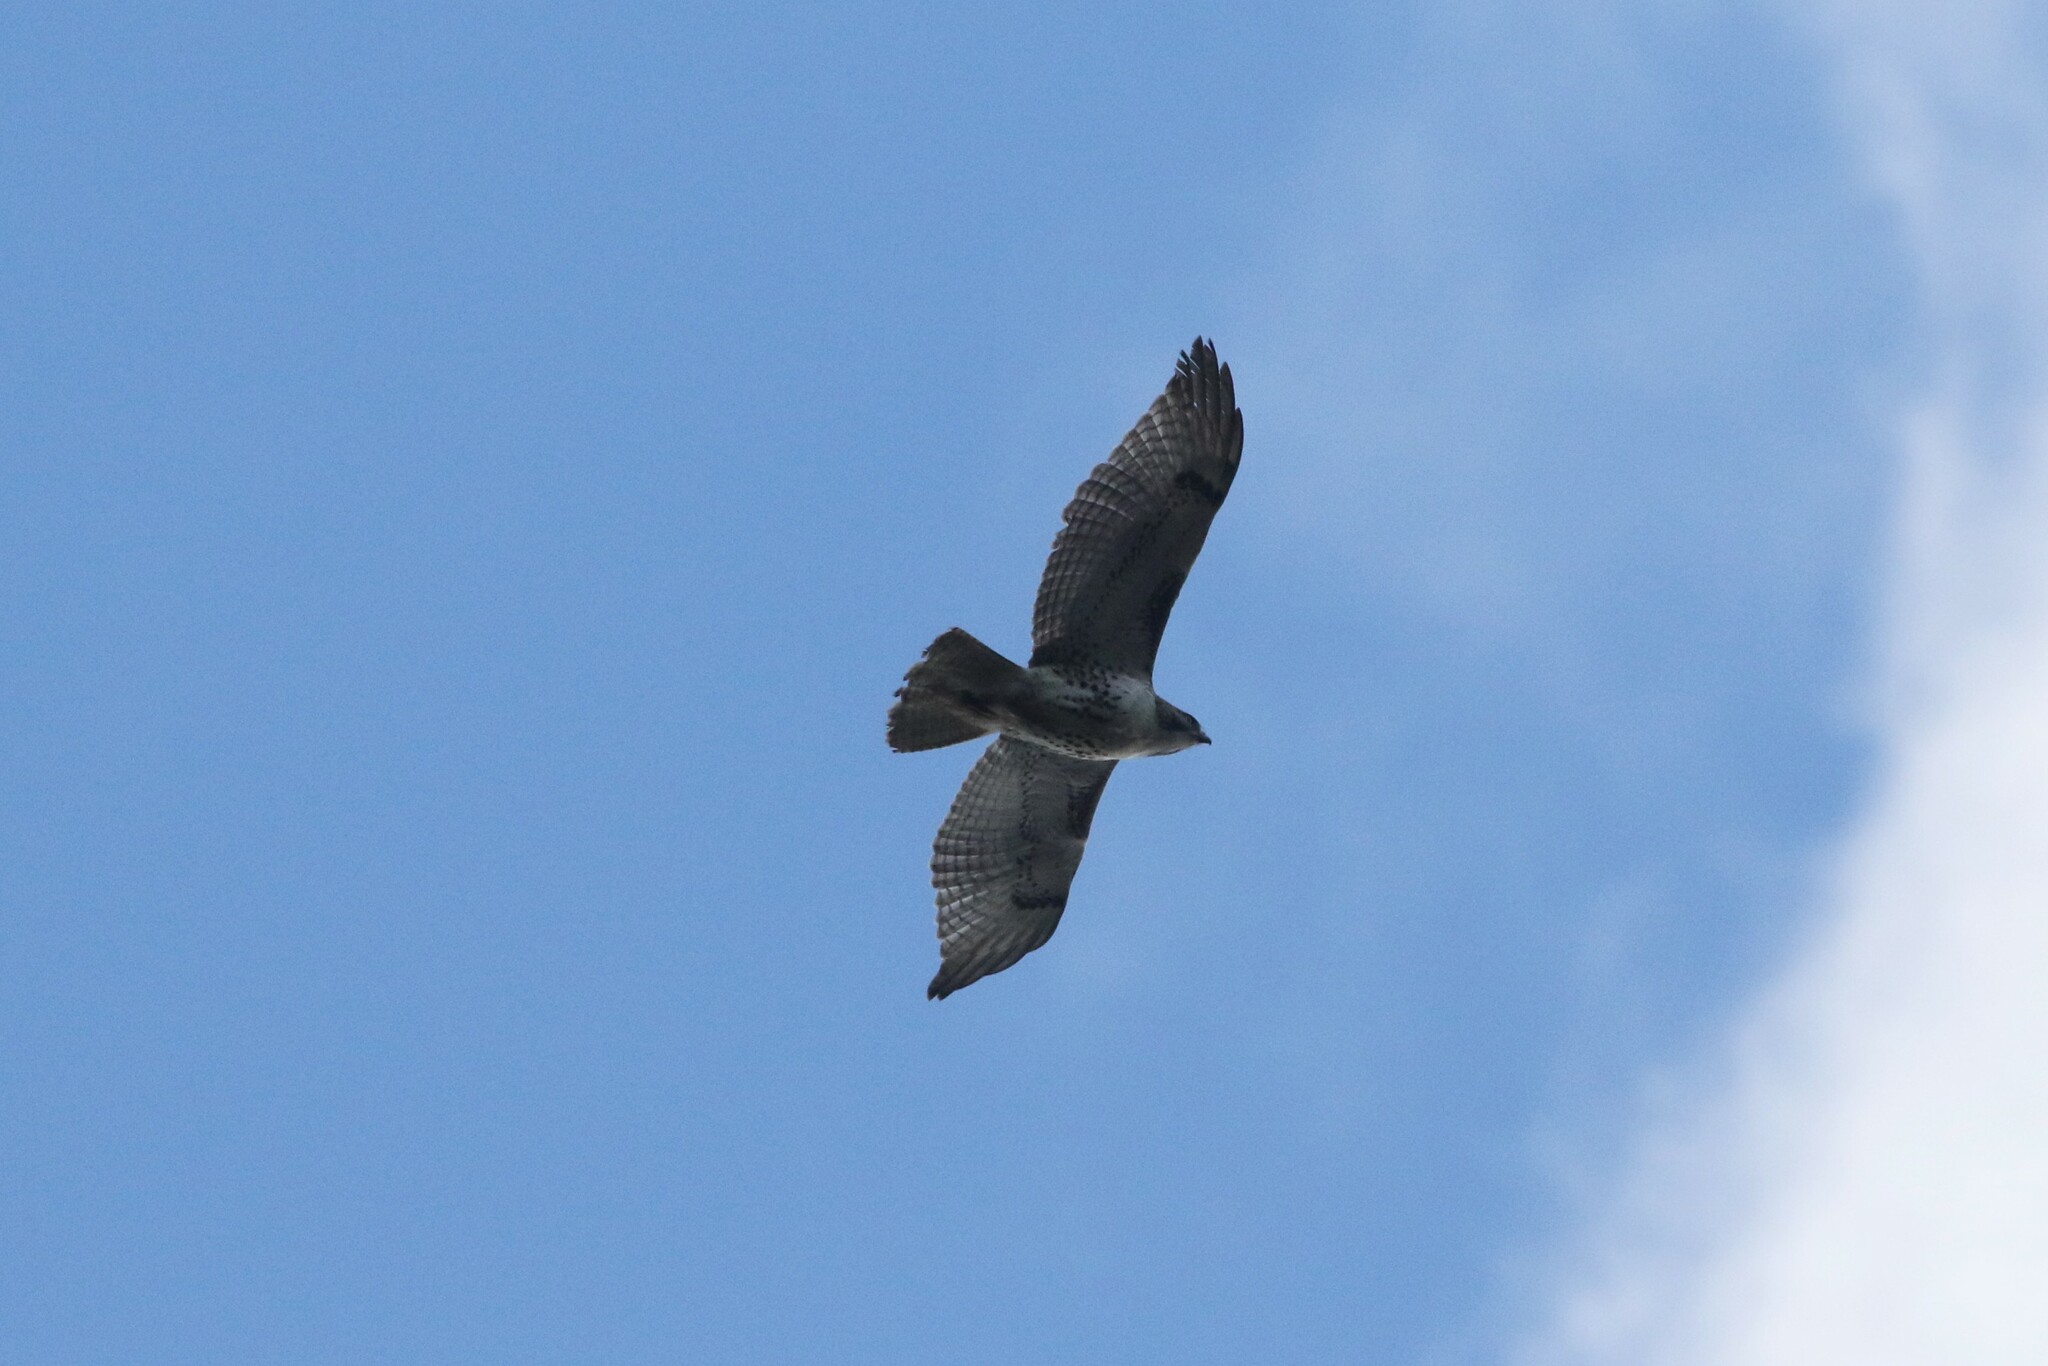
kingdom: Animalia
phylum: Chordata
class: Aves
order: Accipitriformes
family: Accipitridae
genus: Buteo
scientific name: Buteo jamaicensis
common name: Red-tailed hawk
